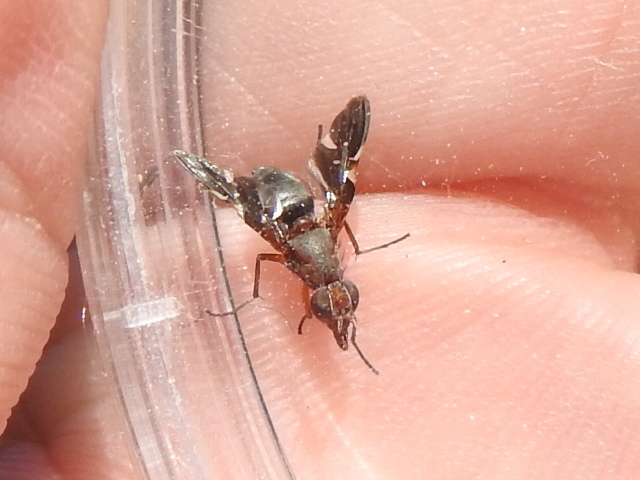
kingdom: Animalia
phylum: Arthropoda
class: Insecta
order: Diptera
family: Ulidiidae
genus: Delphinia
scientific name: Delphinia picta
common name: Common picture-winged fly
